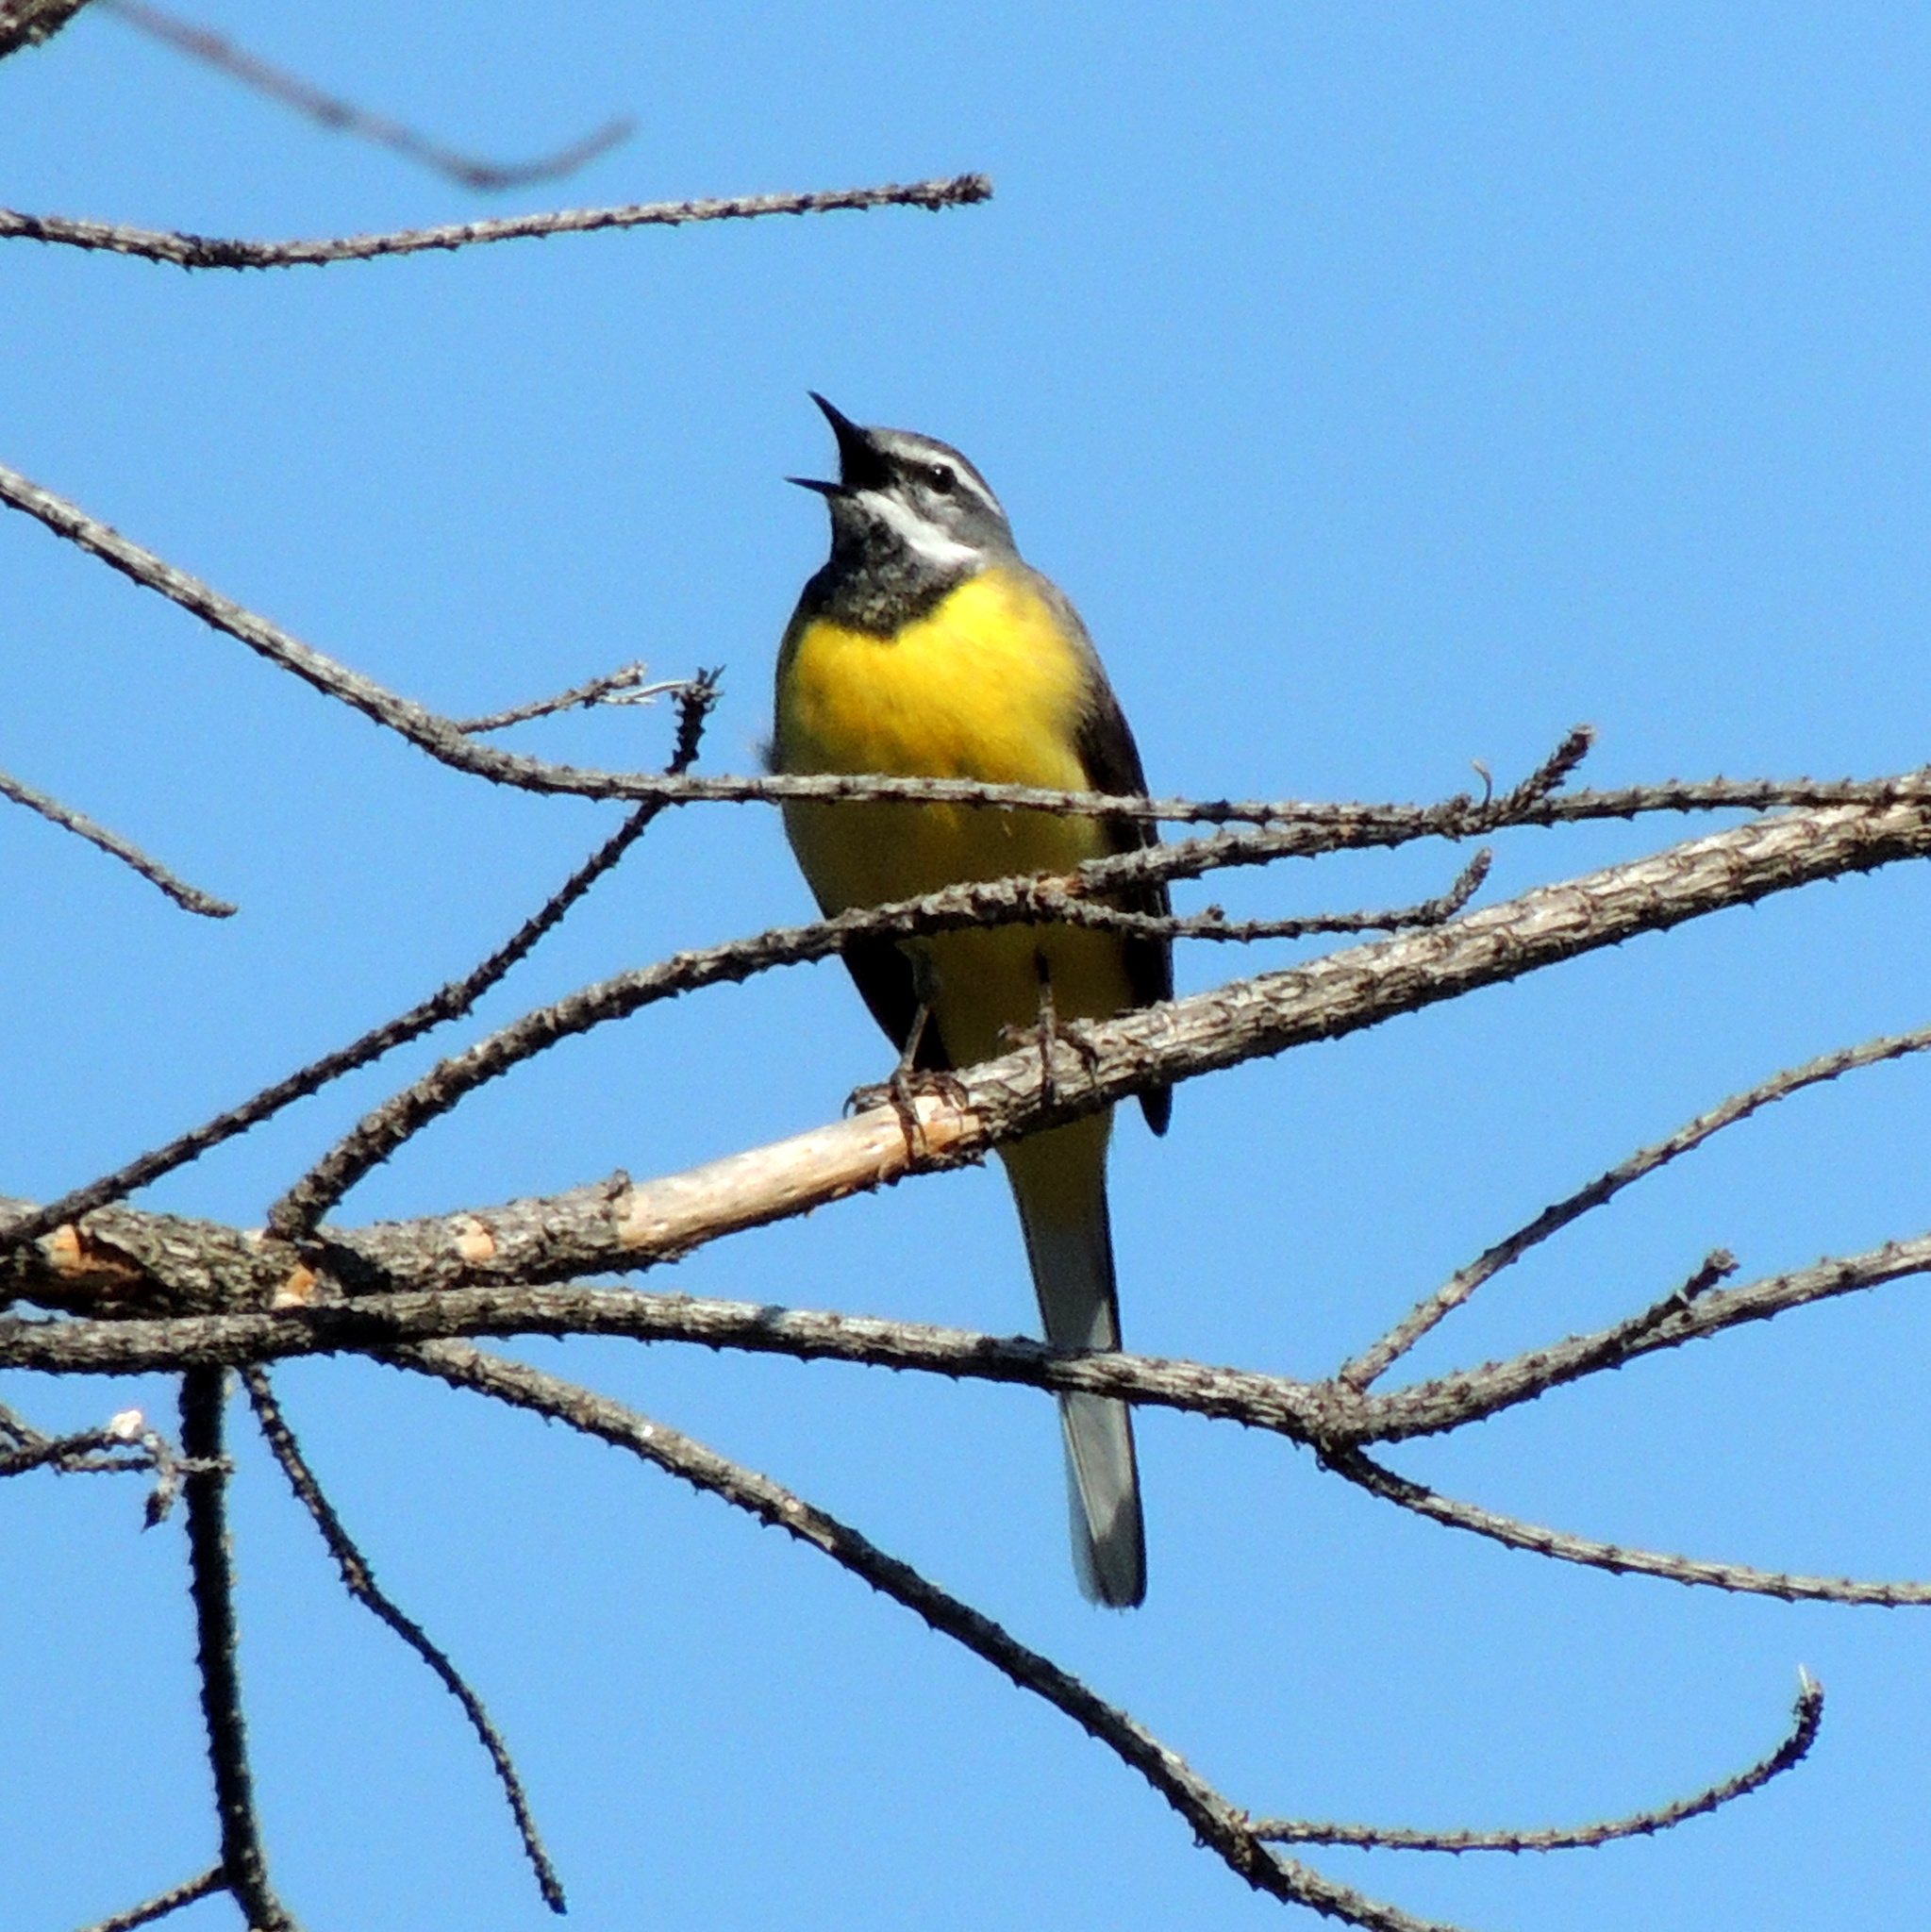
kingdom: Animalia
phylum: Chordata
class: Aves
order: Passeriformes
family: Motacillidae
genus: Motacilla
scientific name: Motacilla flava
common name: Western yellow wagtail
